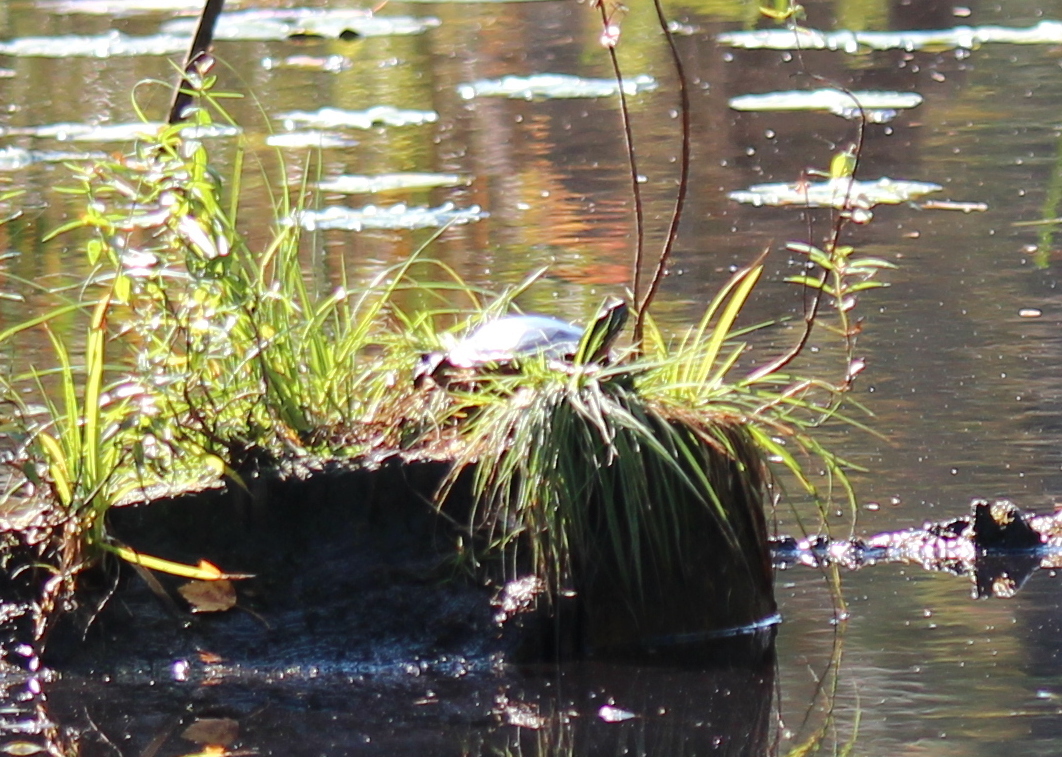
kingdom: Animalia
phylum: Chordata
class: Testudines
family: Emydidae
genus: Chrysemys
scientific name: Chrysemys picta
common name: Painted turtle
